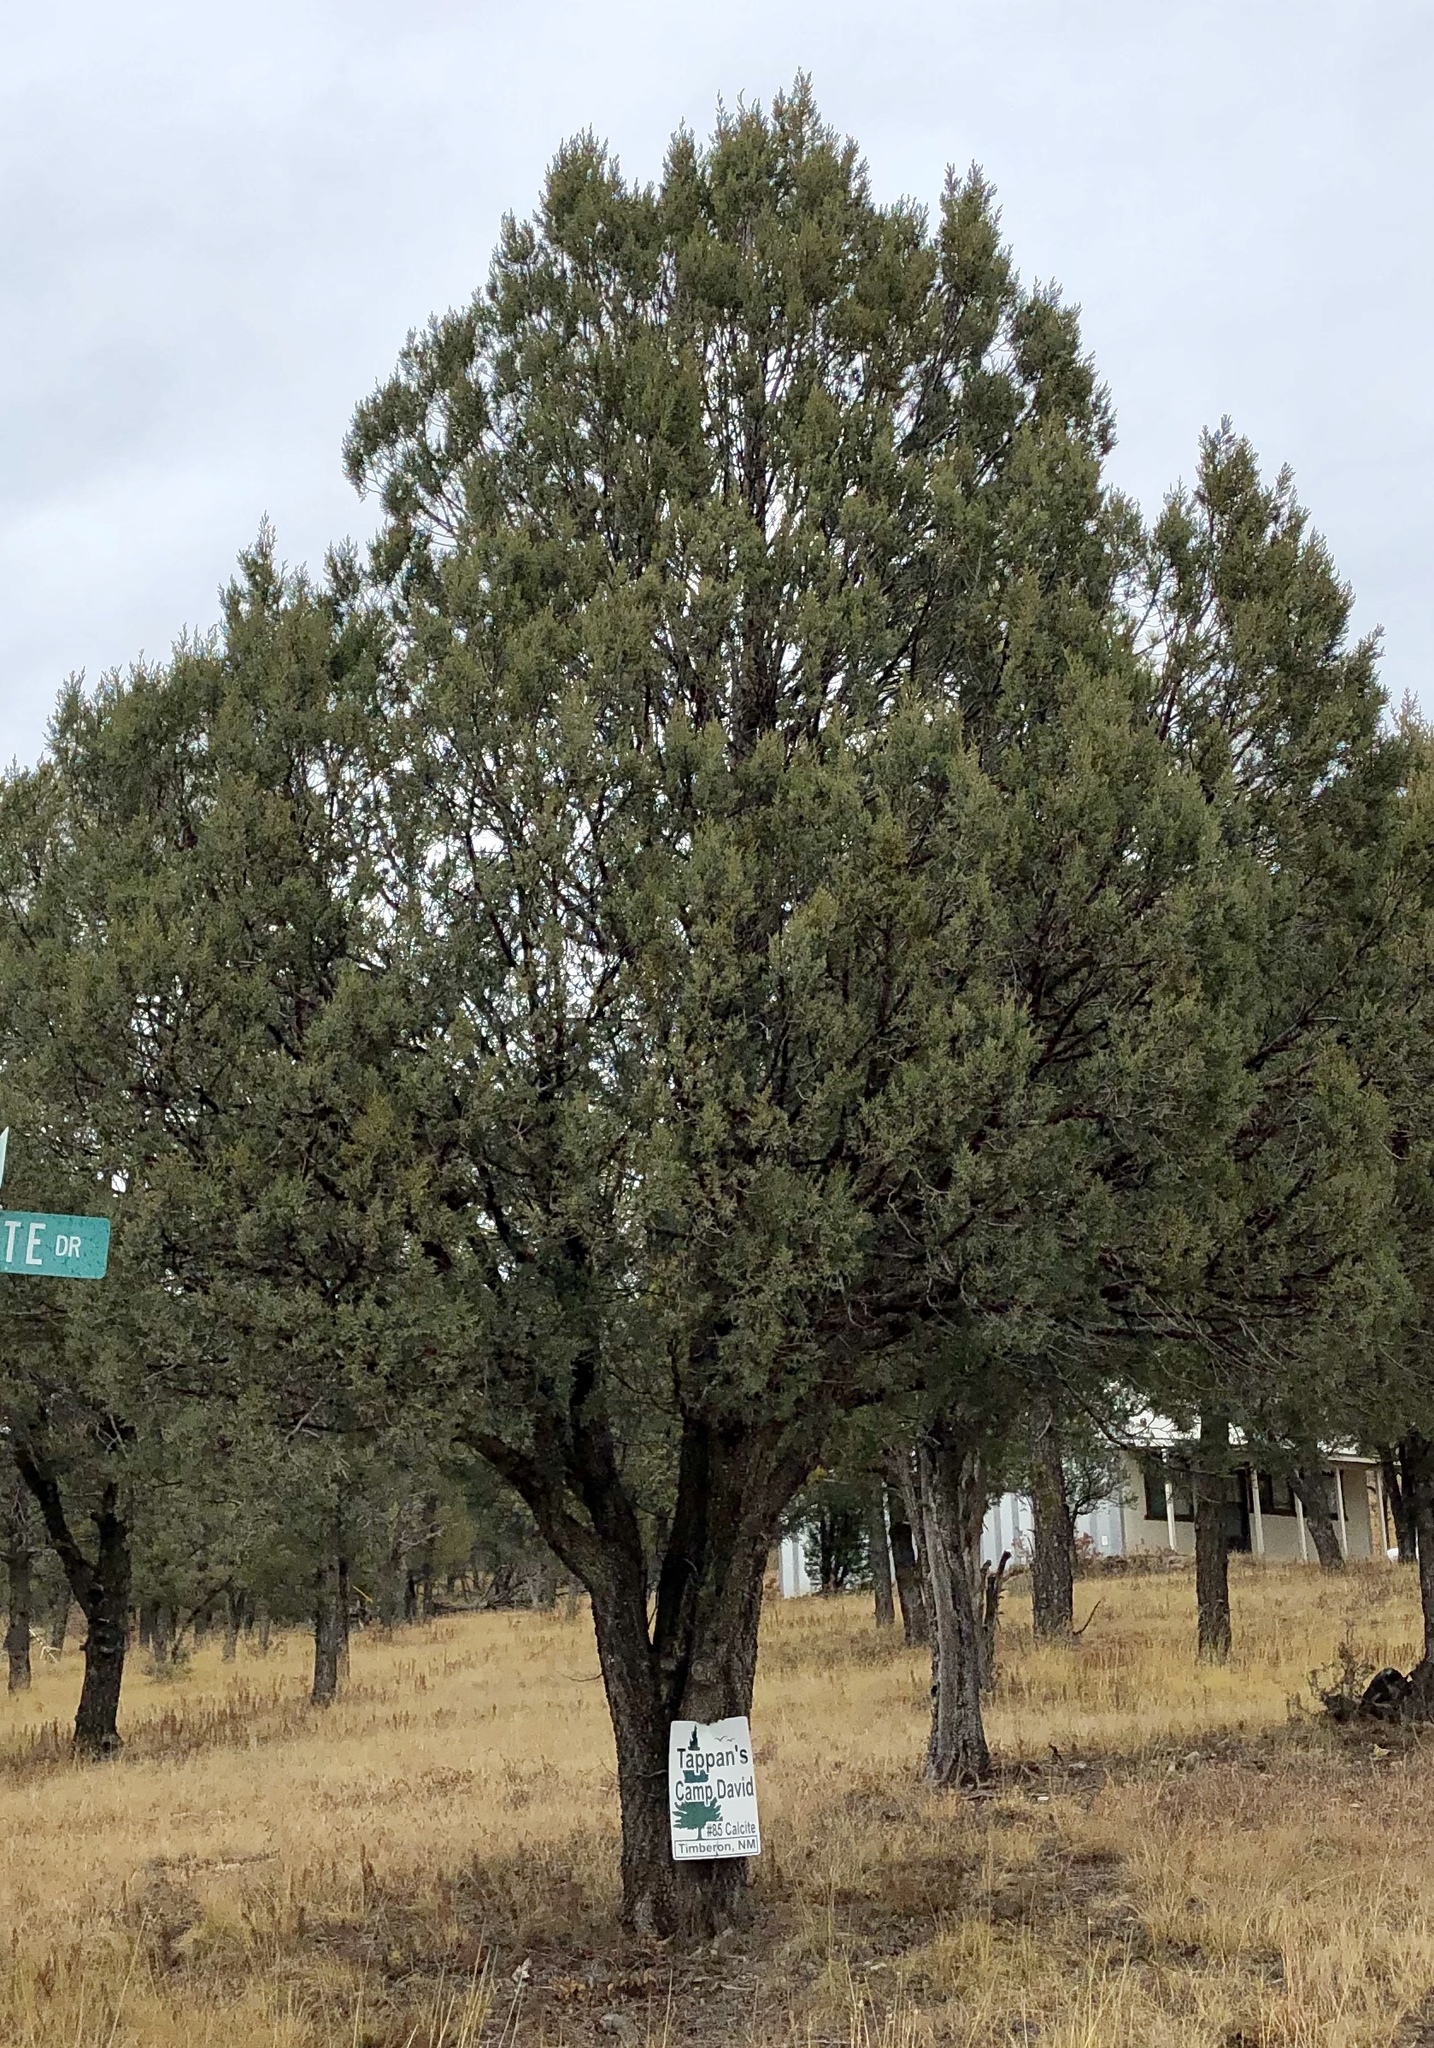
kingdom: Plantae
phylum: Tracheophyta
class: Pinopsida
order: Pinales
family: Cupressaceae
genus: Juniperus
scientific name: Juniperus deppeana
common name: Alligator juniper
